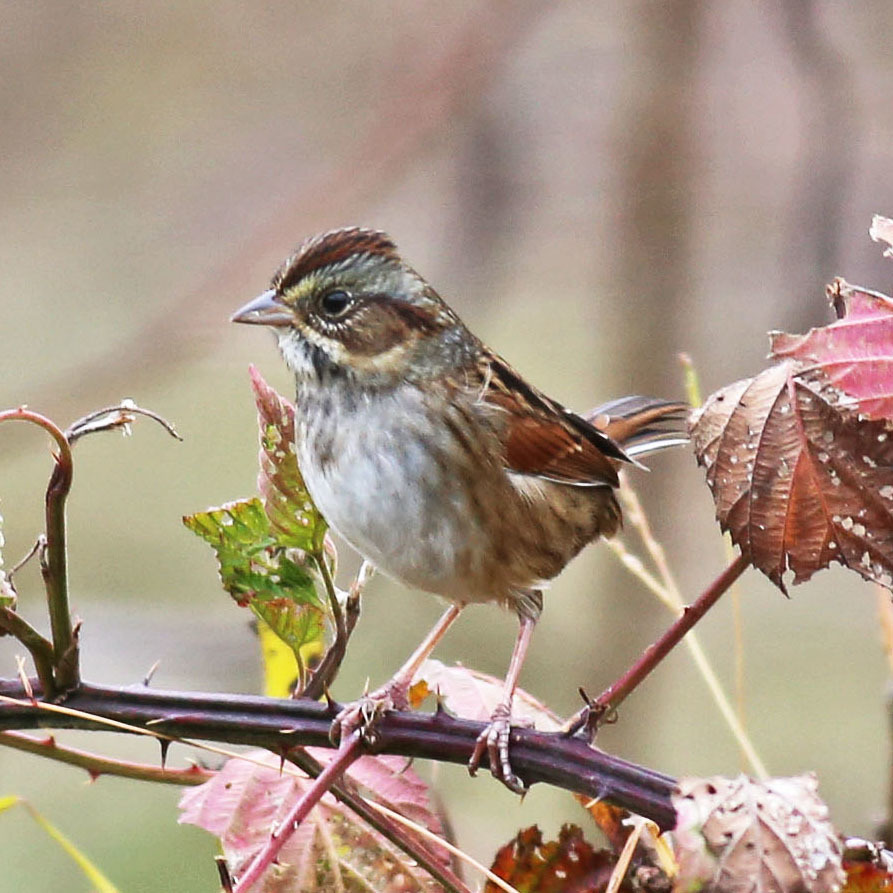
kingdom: Animalia
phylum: Chordata
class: Aves
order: Passeriformes
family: Passerellidae
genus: Melospiza
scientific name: Melospiza georgiana
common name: Swamp sparrow
